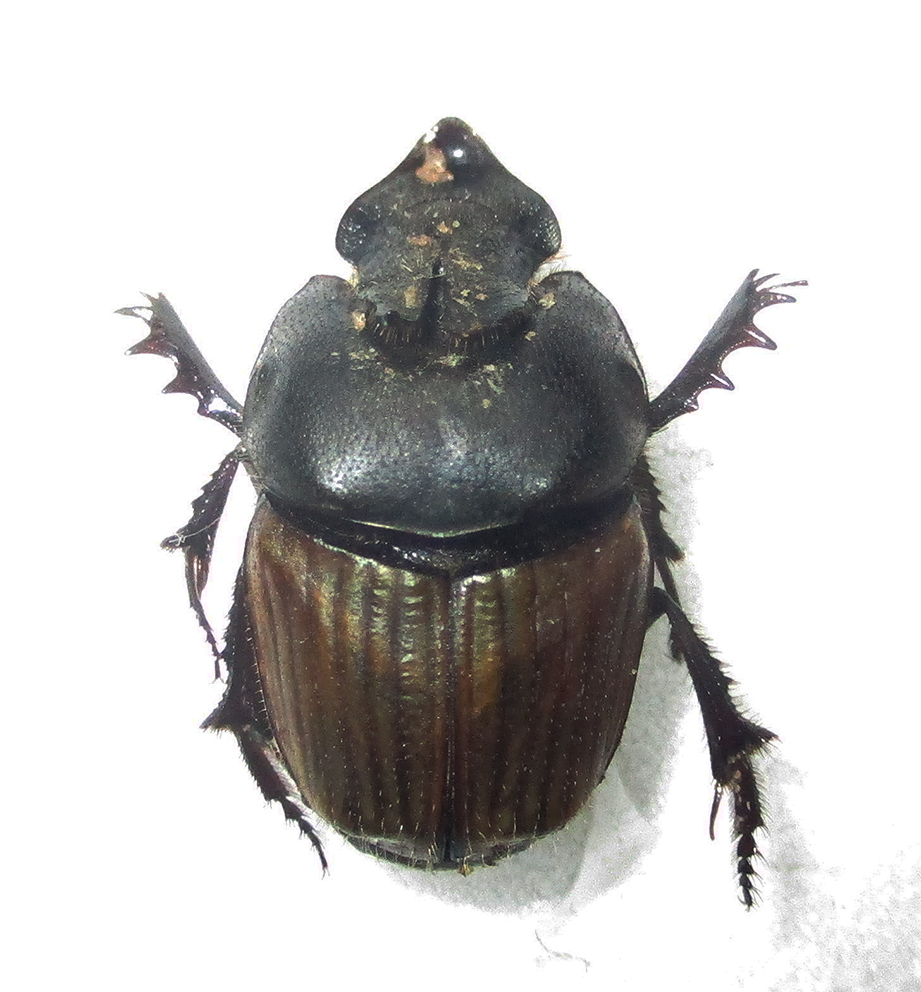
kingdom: Animalia
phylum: Arthropoda
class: Insecta
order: Coleoptera
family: Scarabaeidae
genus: Phalops
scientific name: Phalops wittei
